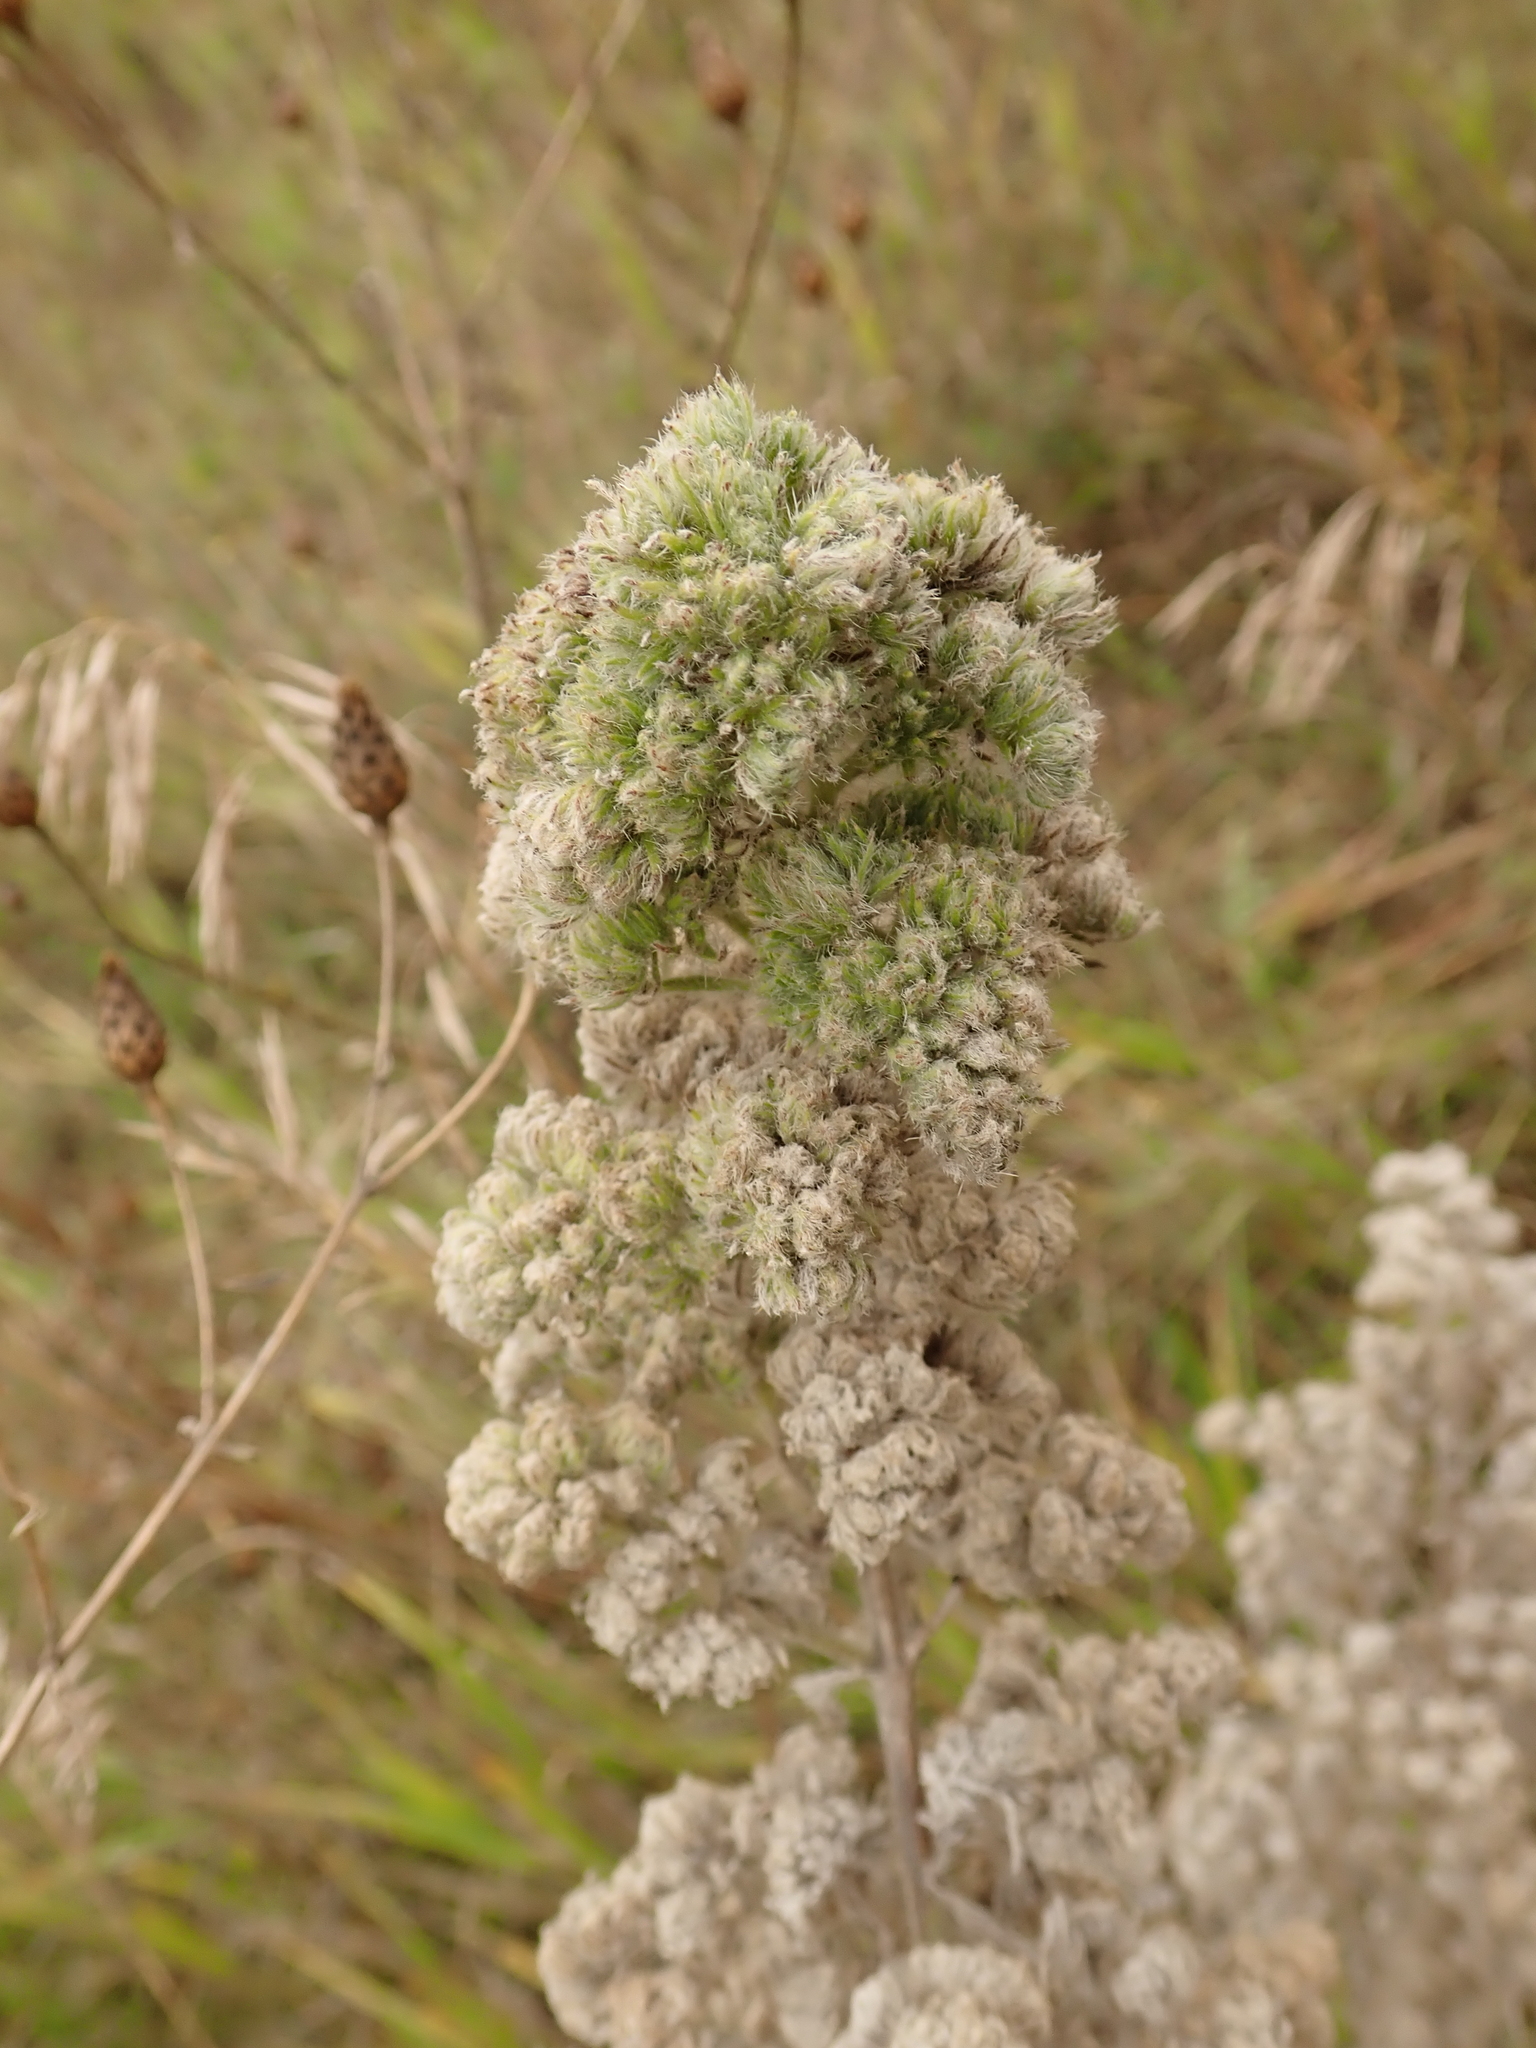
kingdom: Animalia
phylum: Arthropoda
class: Arachnida
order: Trombidiformes
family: Eriophyidae
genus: Aceria
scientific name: Aceria echii
